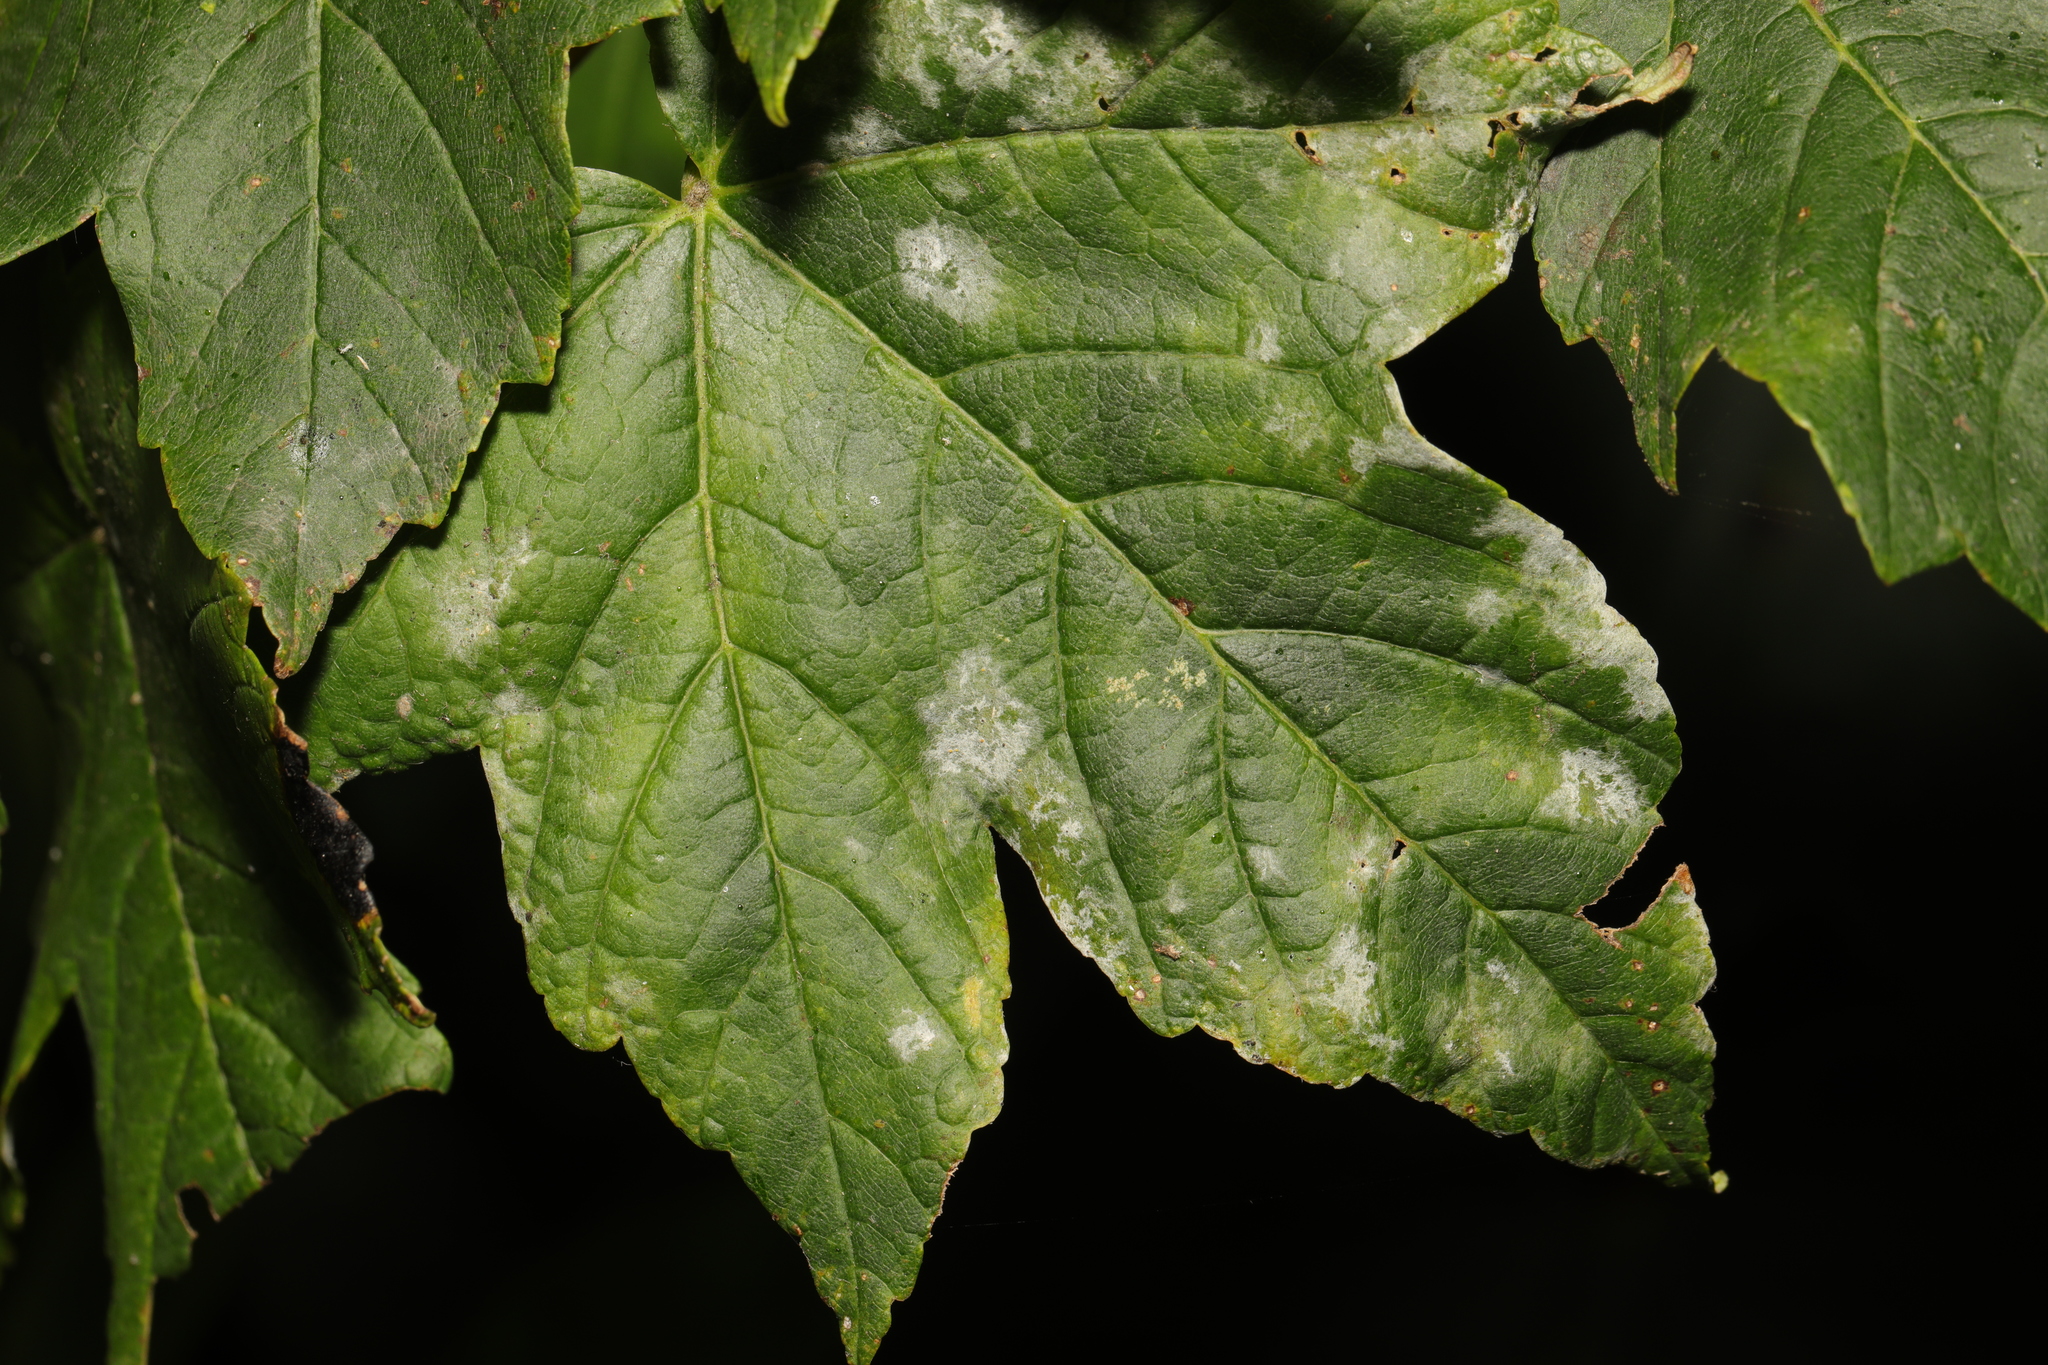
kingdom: Fungi
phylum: Ascomycota
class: Leotiomycetes
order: Helotiales
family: Erysiphaceae
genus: Sawadaea
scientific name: Sawadaea bicornis
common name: Maple mildew
